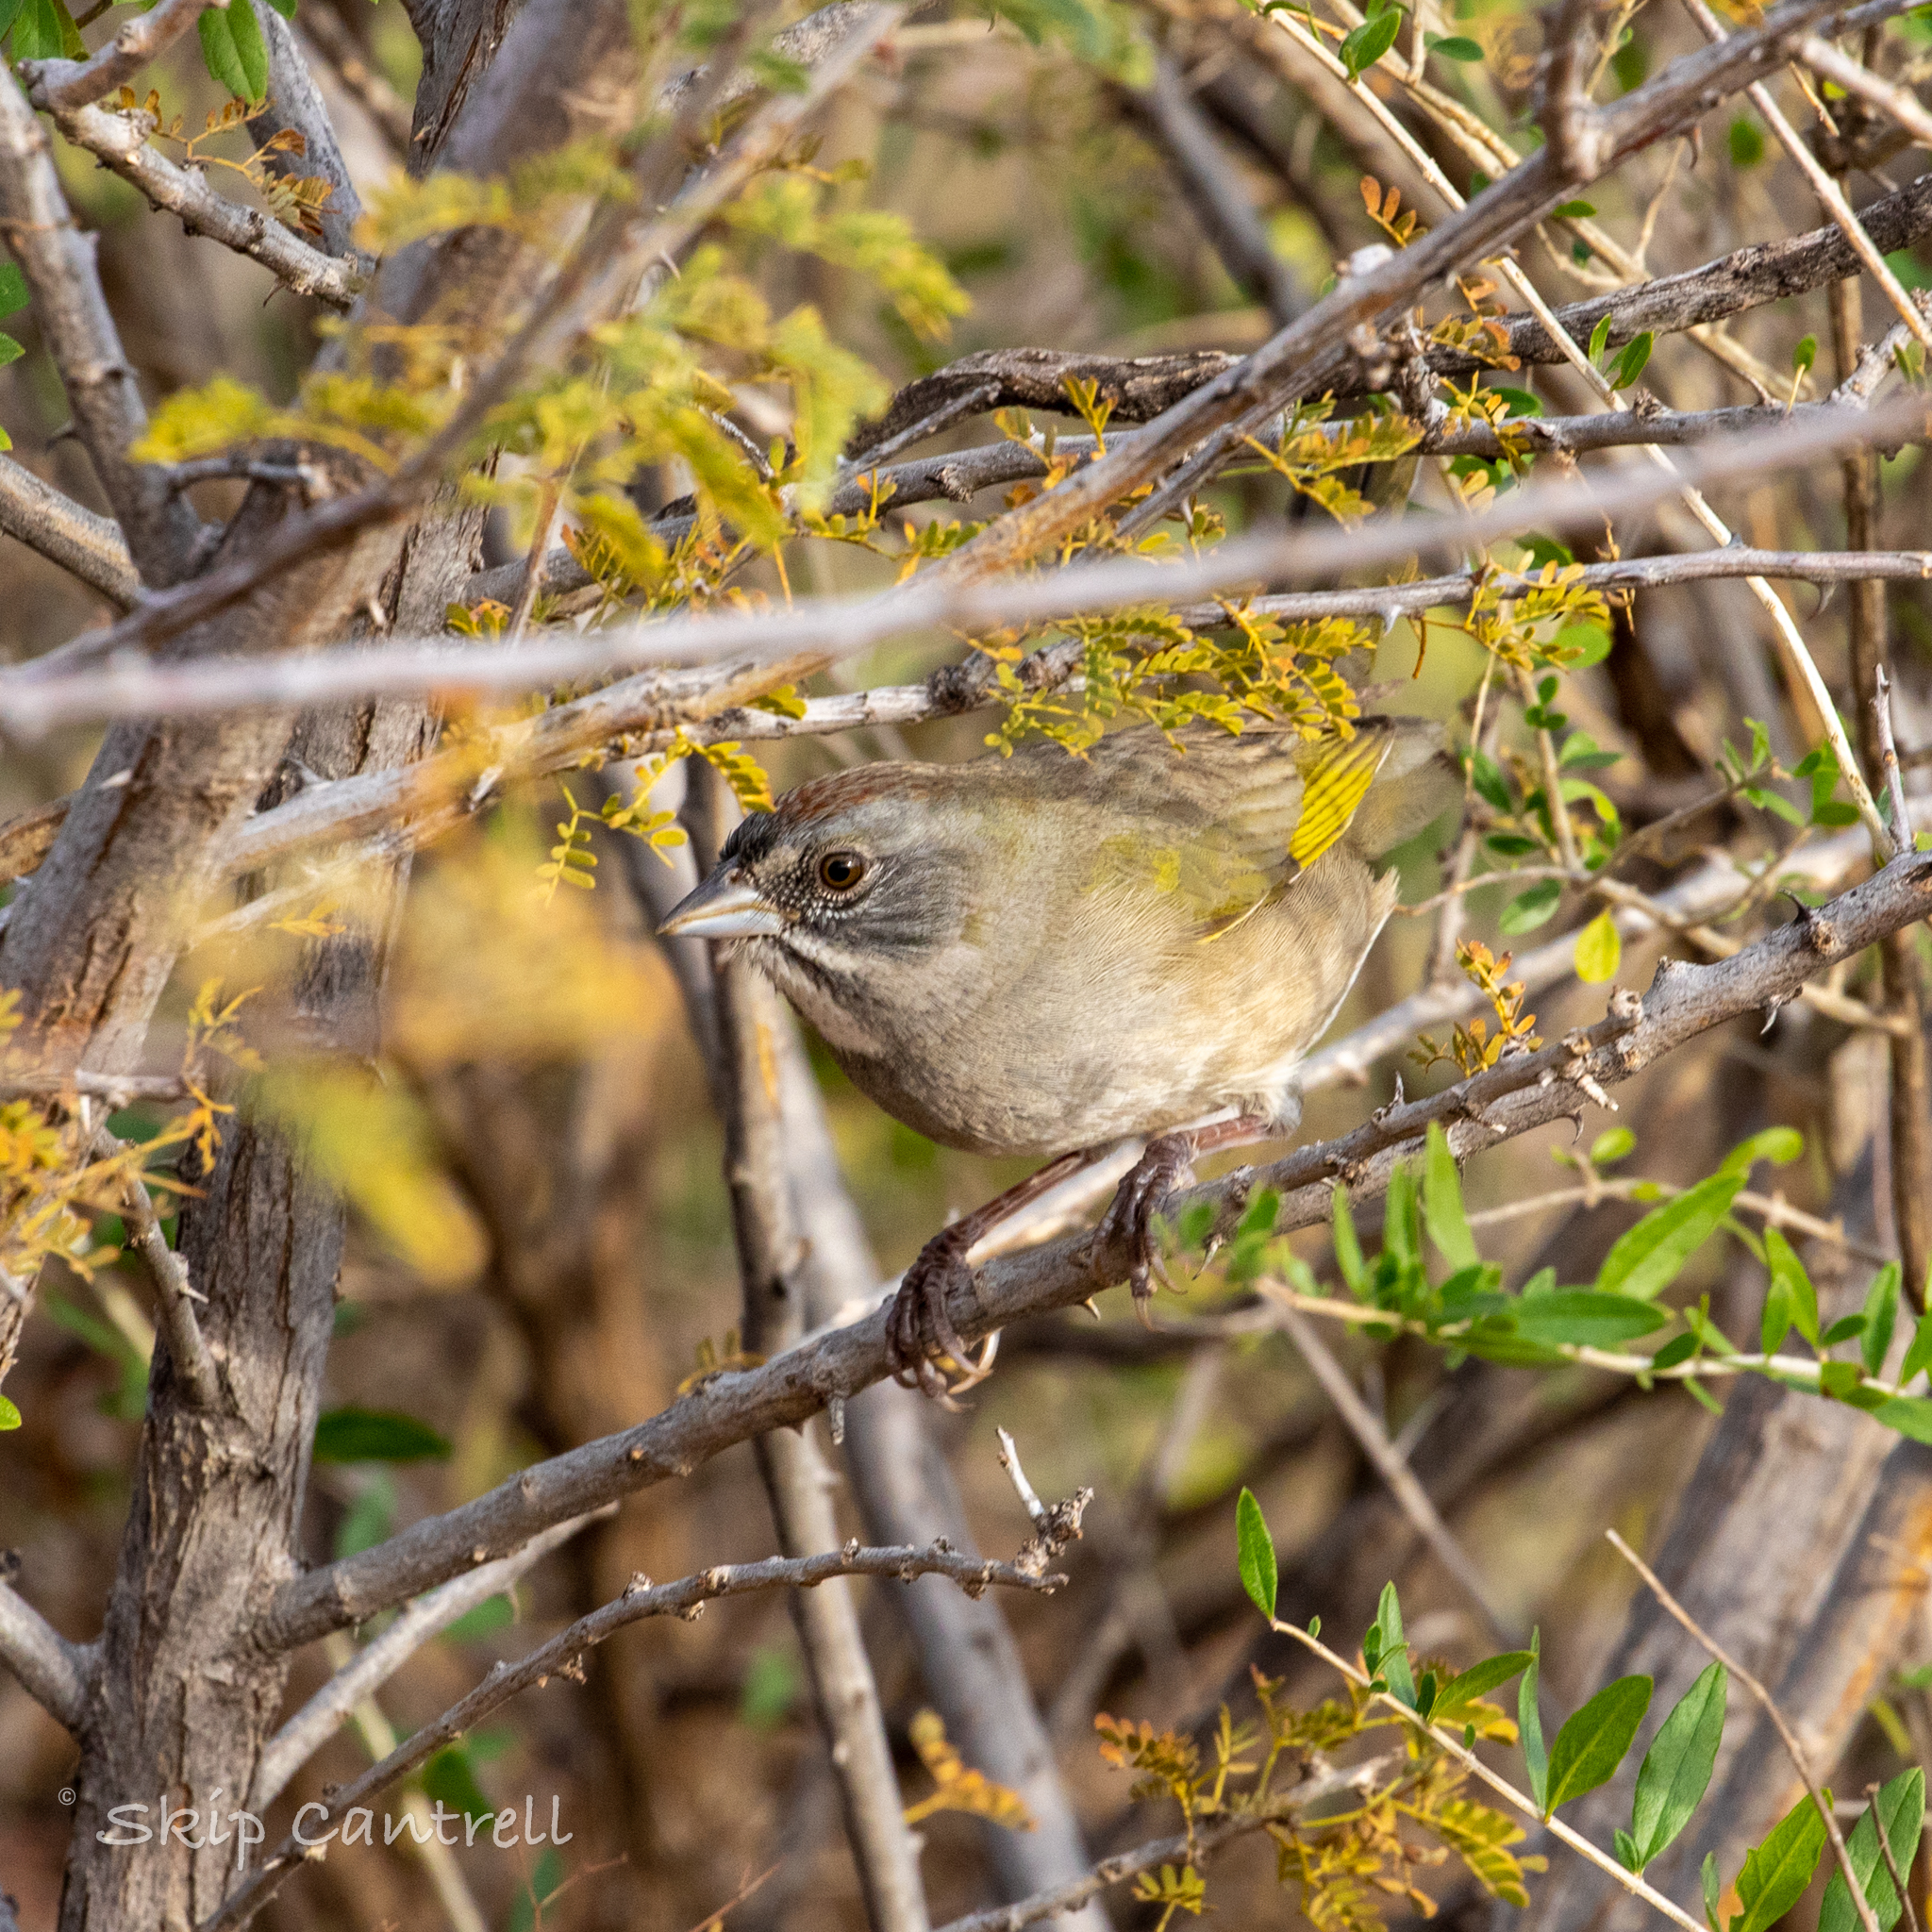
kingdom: Animalia
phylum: Chordata
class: Aves
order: Passeriformes
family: Passerellidae
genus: Pipilo
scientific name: Pipilo chlorurus
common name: Green-tailed towhee
